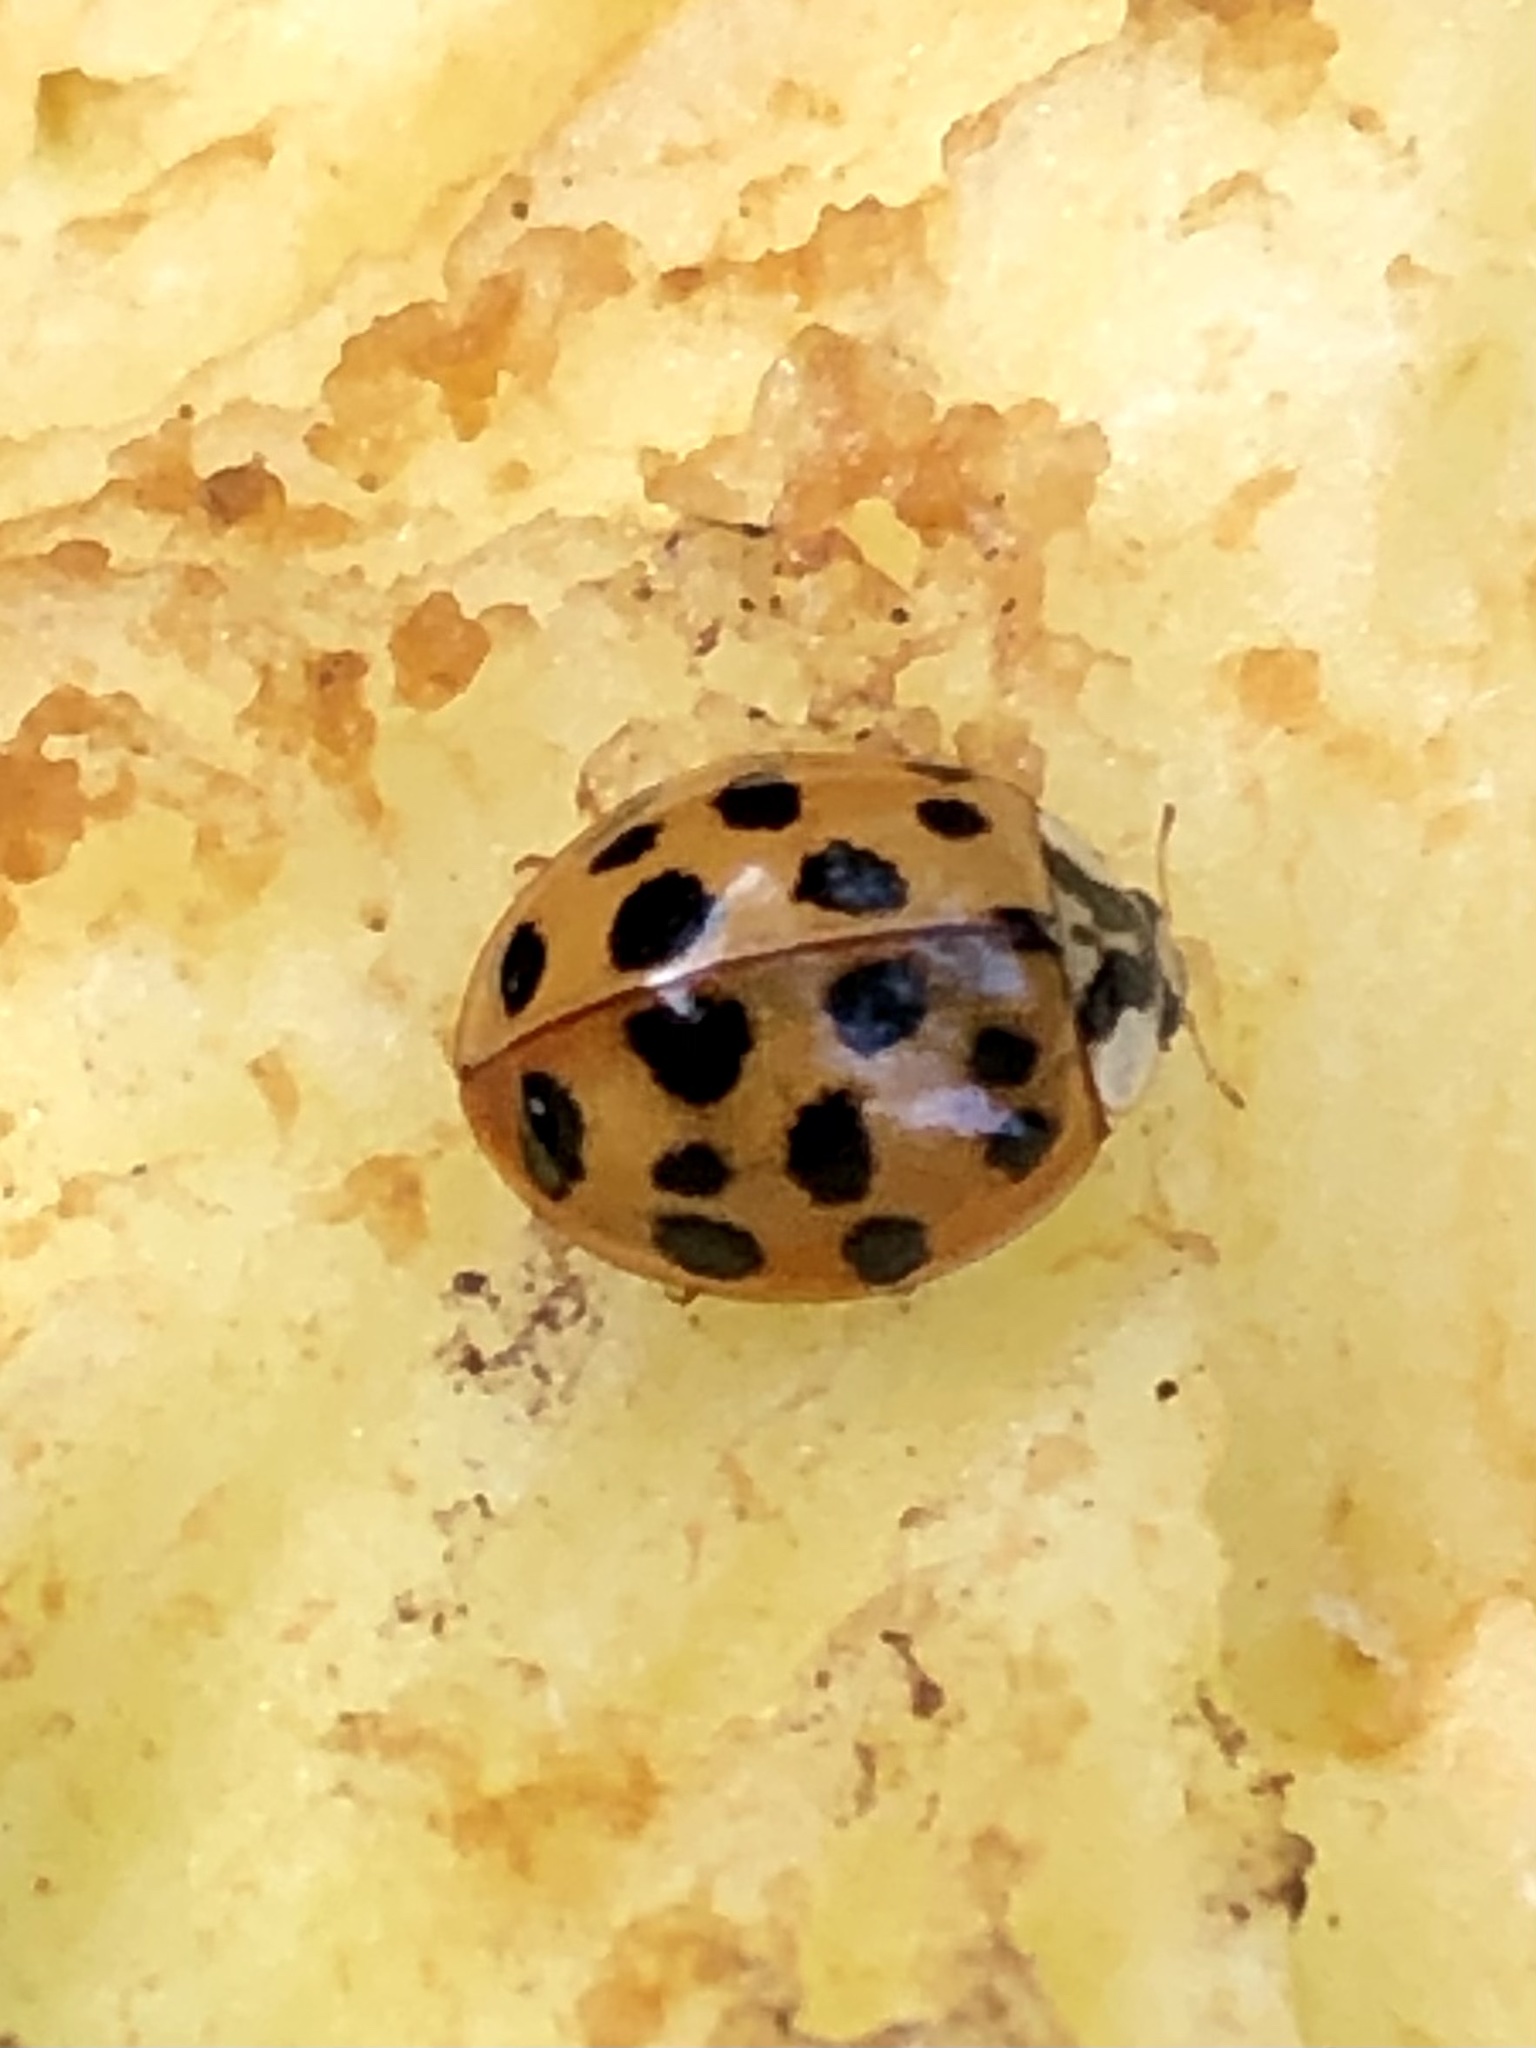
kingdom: Animalia
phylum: Arthropoda
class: Insecta
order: Coleoptera
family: Coccinellidae
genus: Harmonia
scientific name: Harmonia axyridis
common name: Harlequin ladybird
